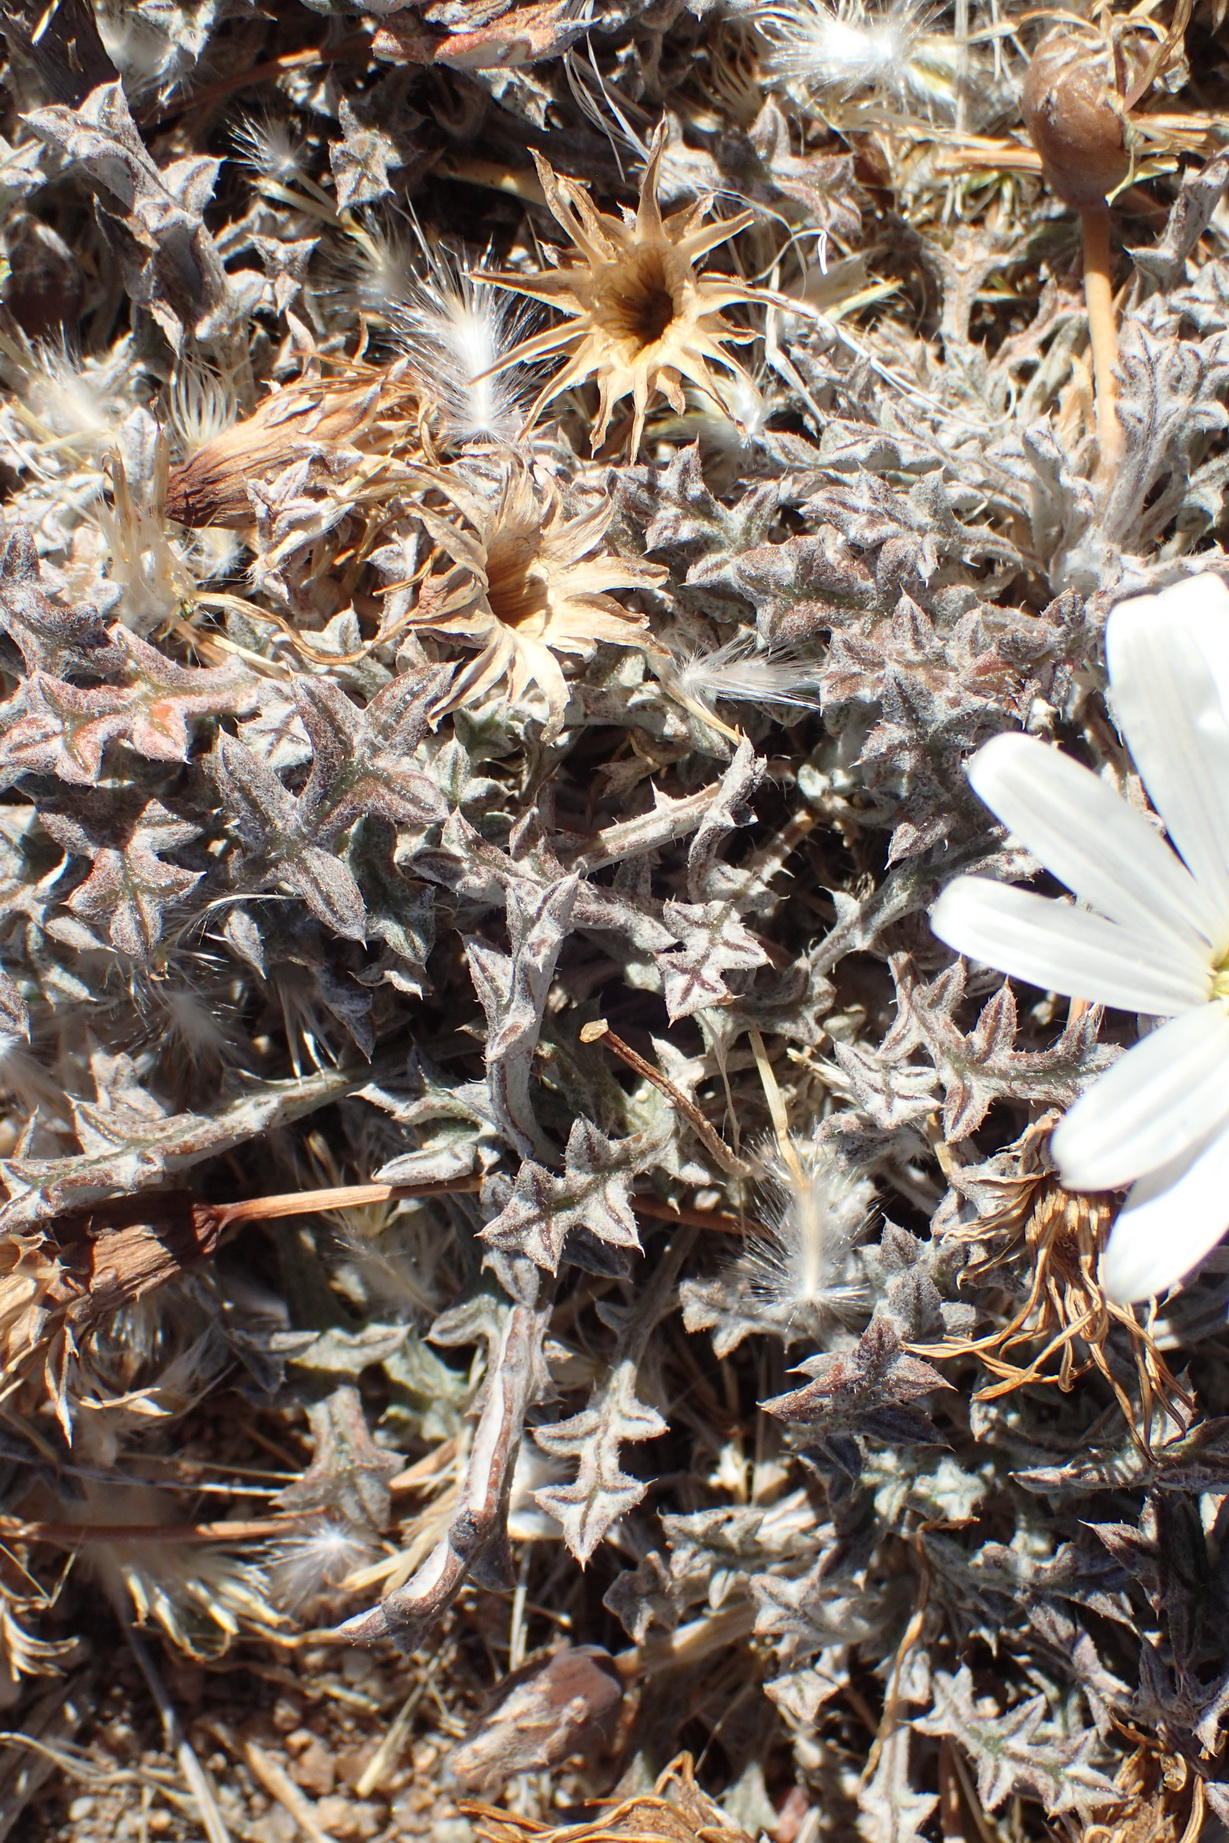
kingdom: Plantae
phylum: Tracheophyta
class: Magnoliopsida
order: Asterales
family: Asteraceae
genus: Gazania
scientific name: Gazania jurineifolia
